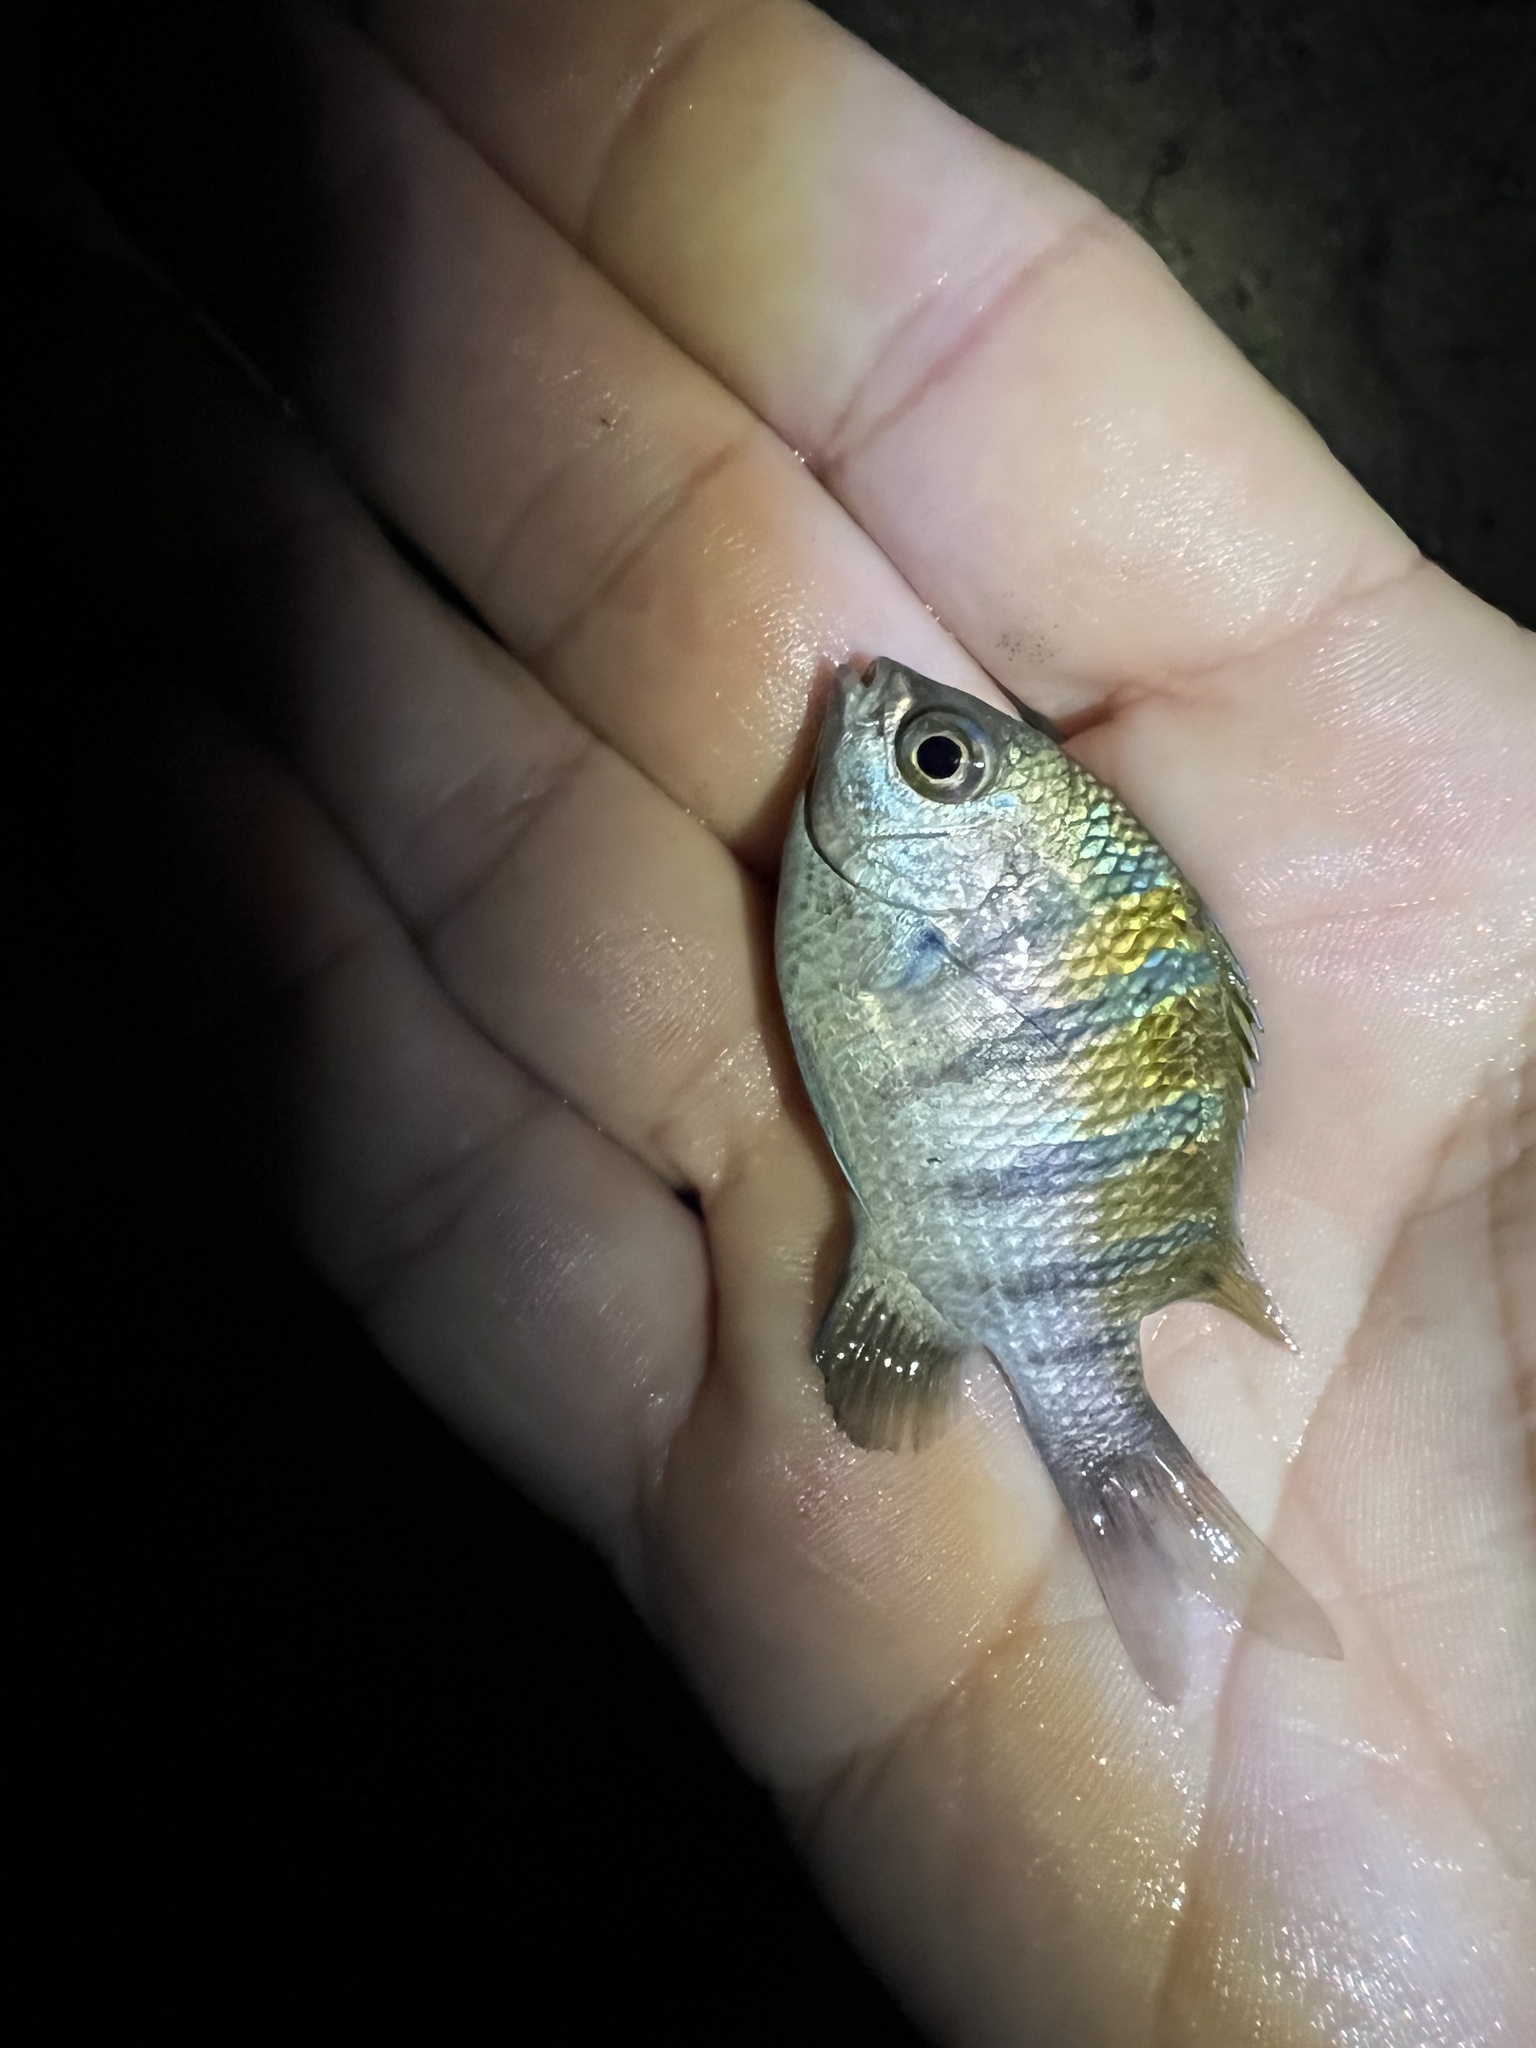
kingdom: Animalia
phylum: Chordata
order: Perciformes
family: Pomacentridae
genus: Abudefduf
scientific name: Abudefduf troschelii
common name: Panamic sergeant major
